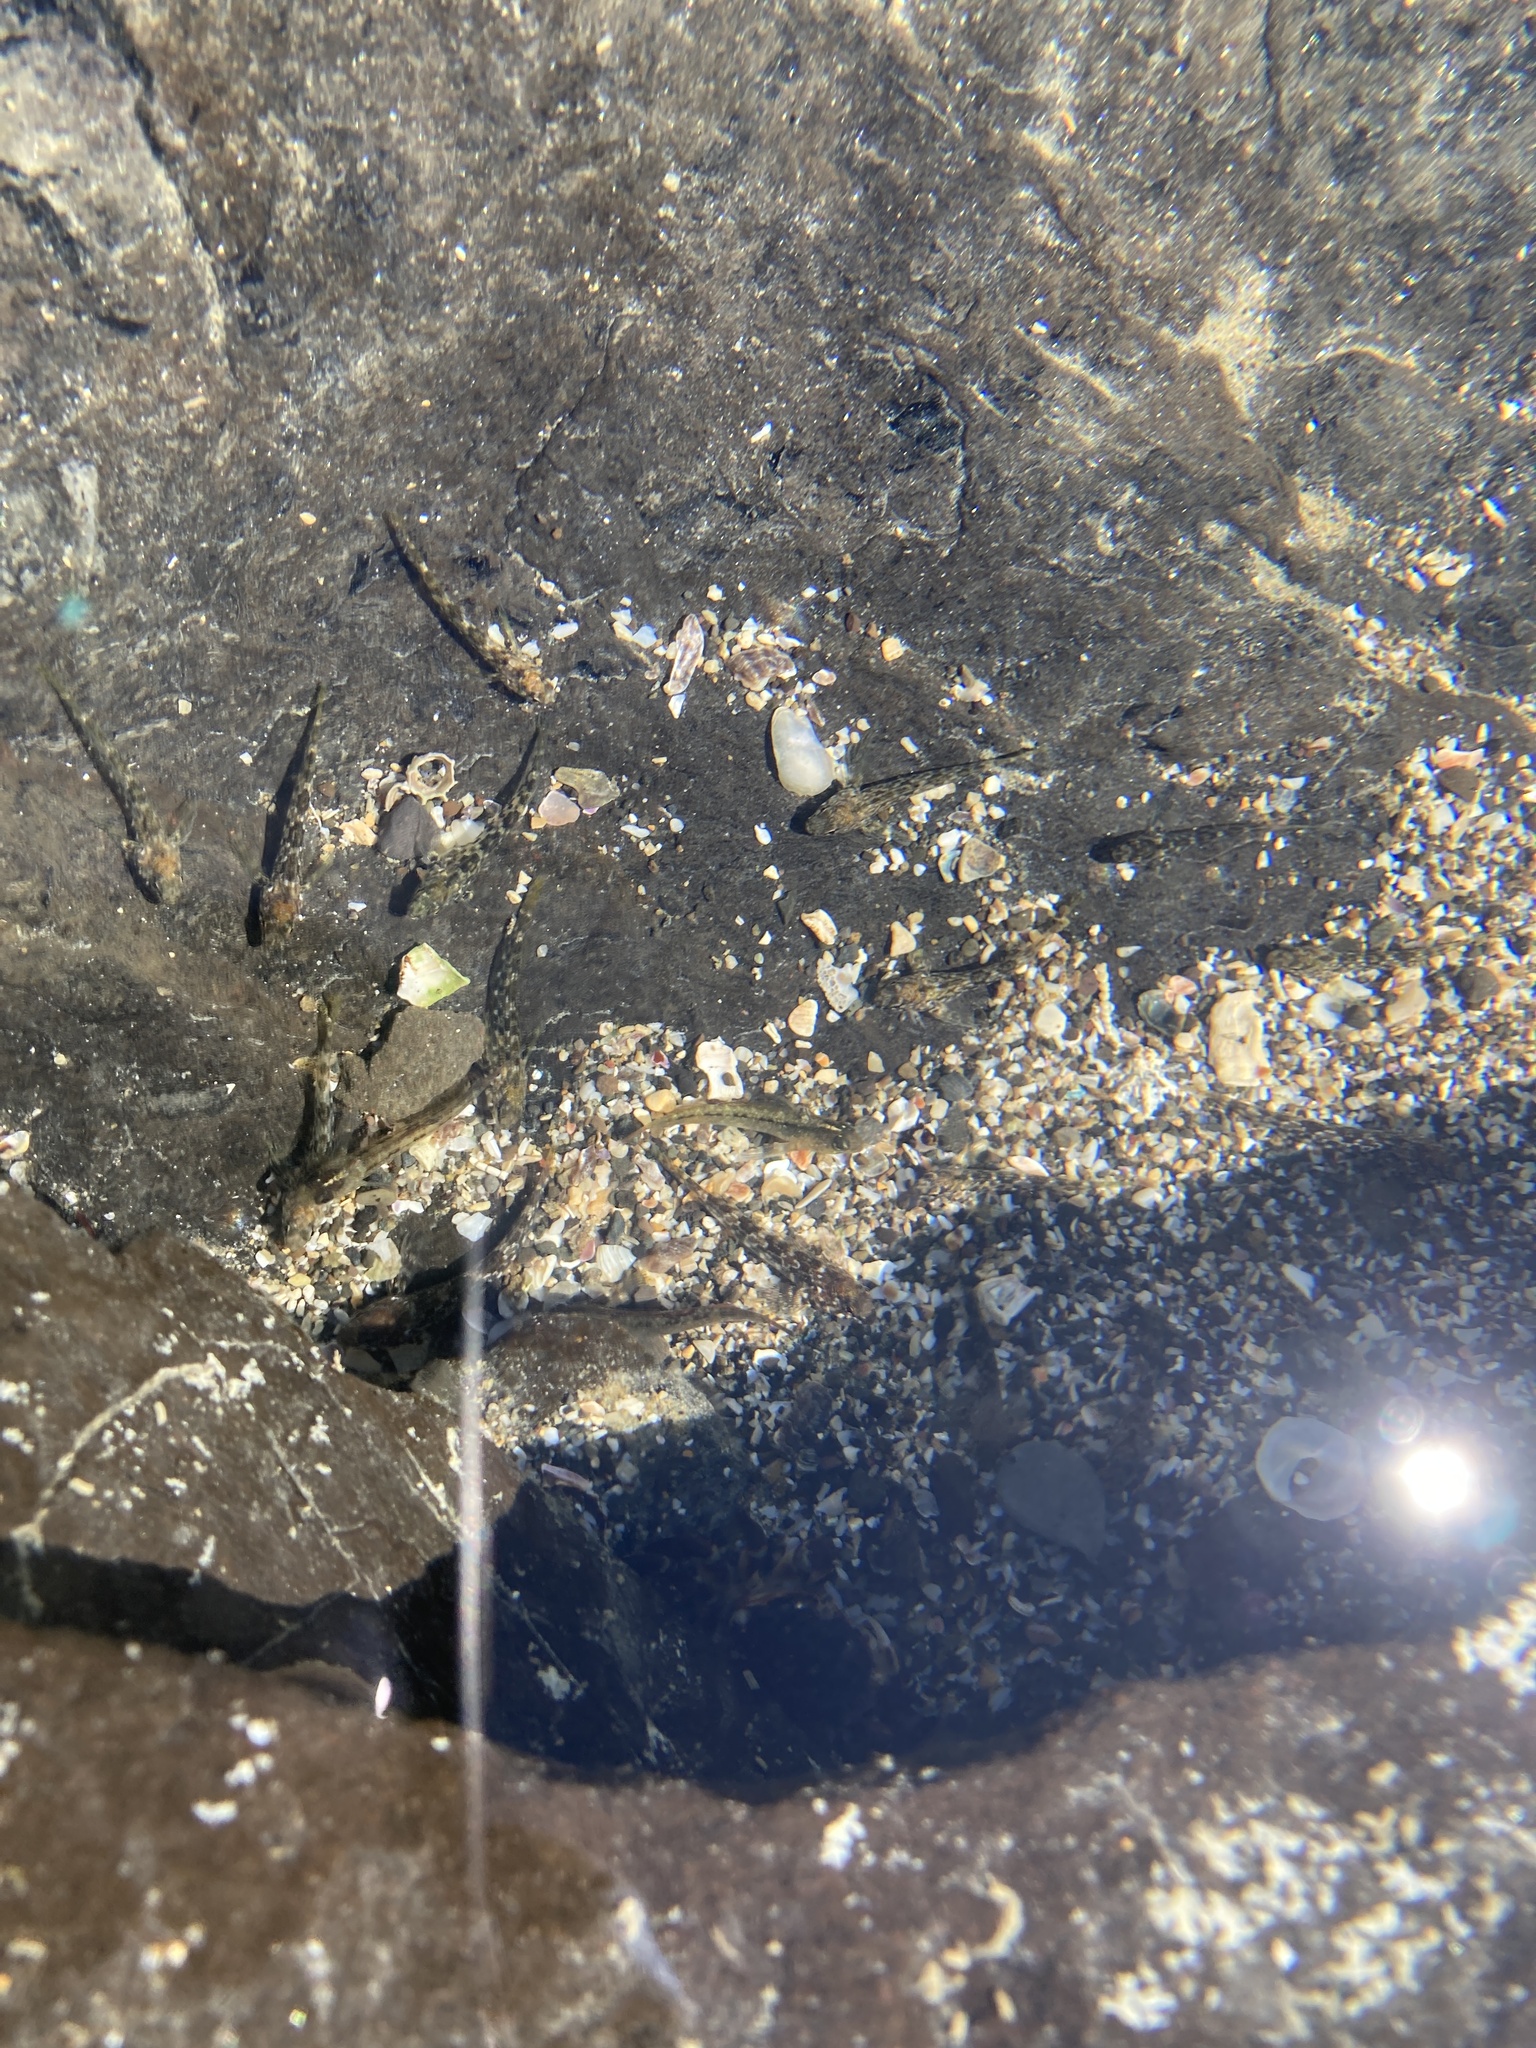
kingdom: Animalia
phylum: Chordata
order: Perciformes
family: Tripterygiidae
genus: Bellapiscis
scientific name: Bellapiscis medius
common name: Twister
